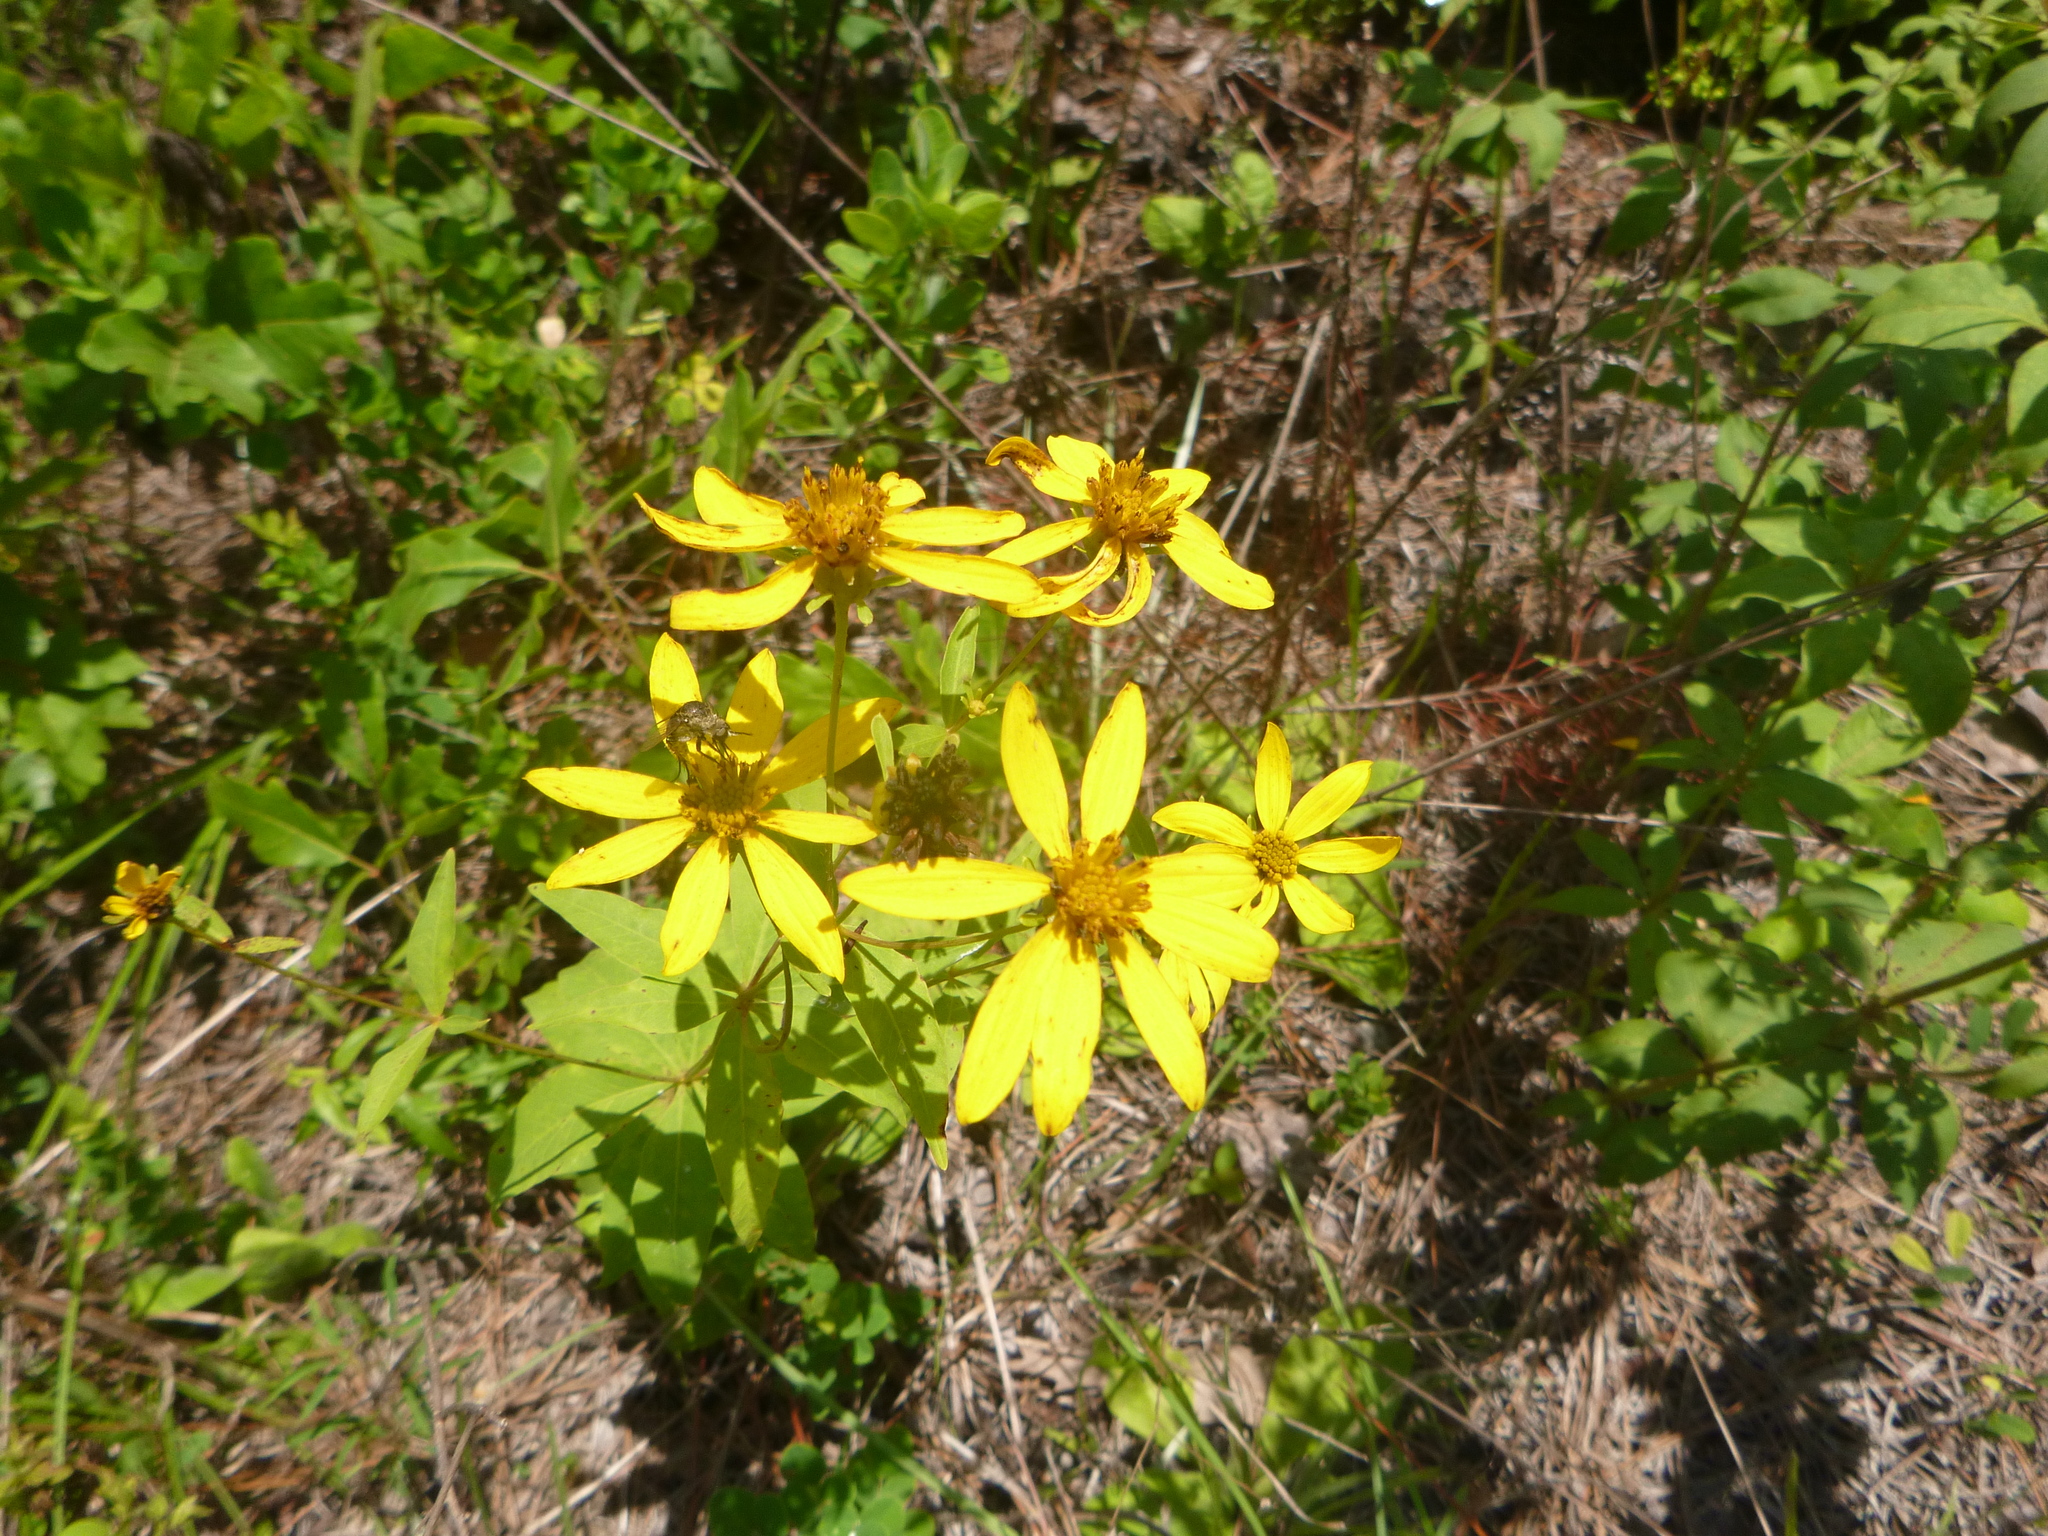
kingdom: Plantae
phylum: Tracheophyta
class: Magnoliopsida
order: Asterales
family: Asteraceae
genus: Coreopsis
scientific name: Coreopsis major
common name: Forest tickseed
